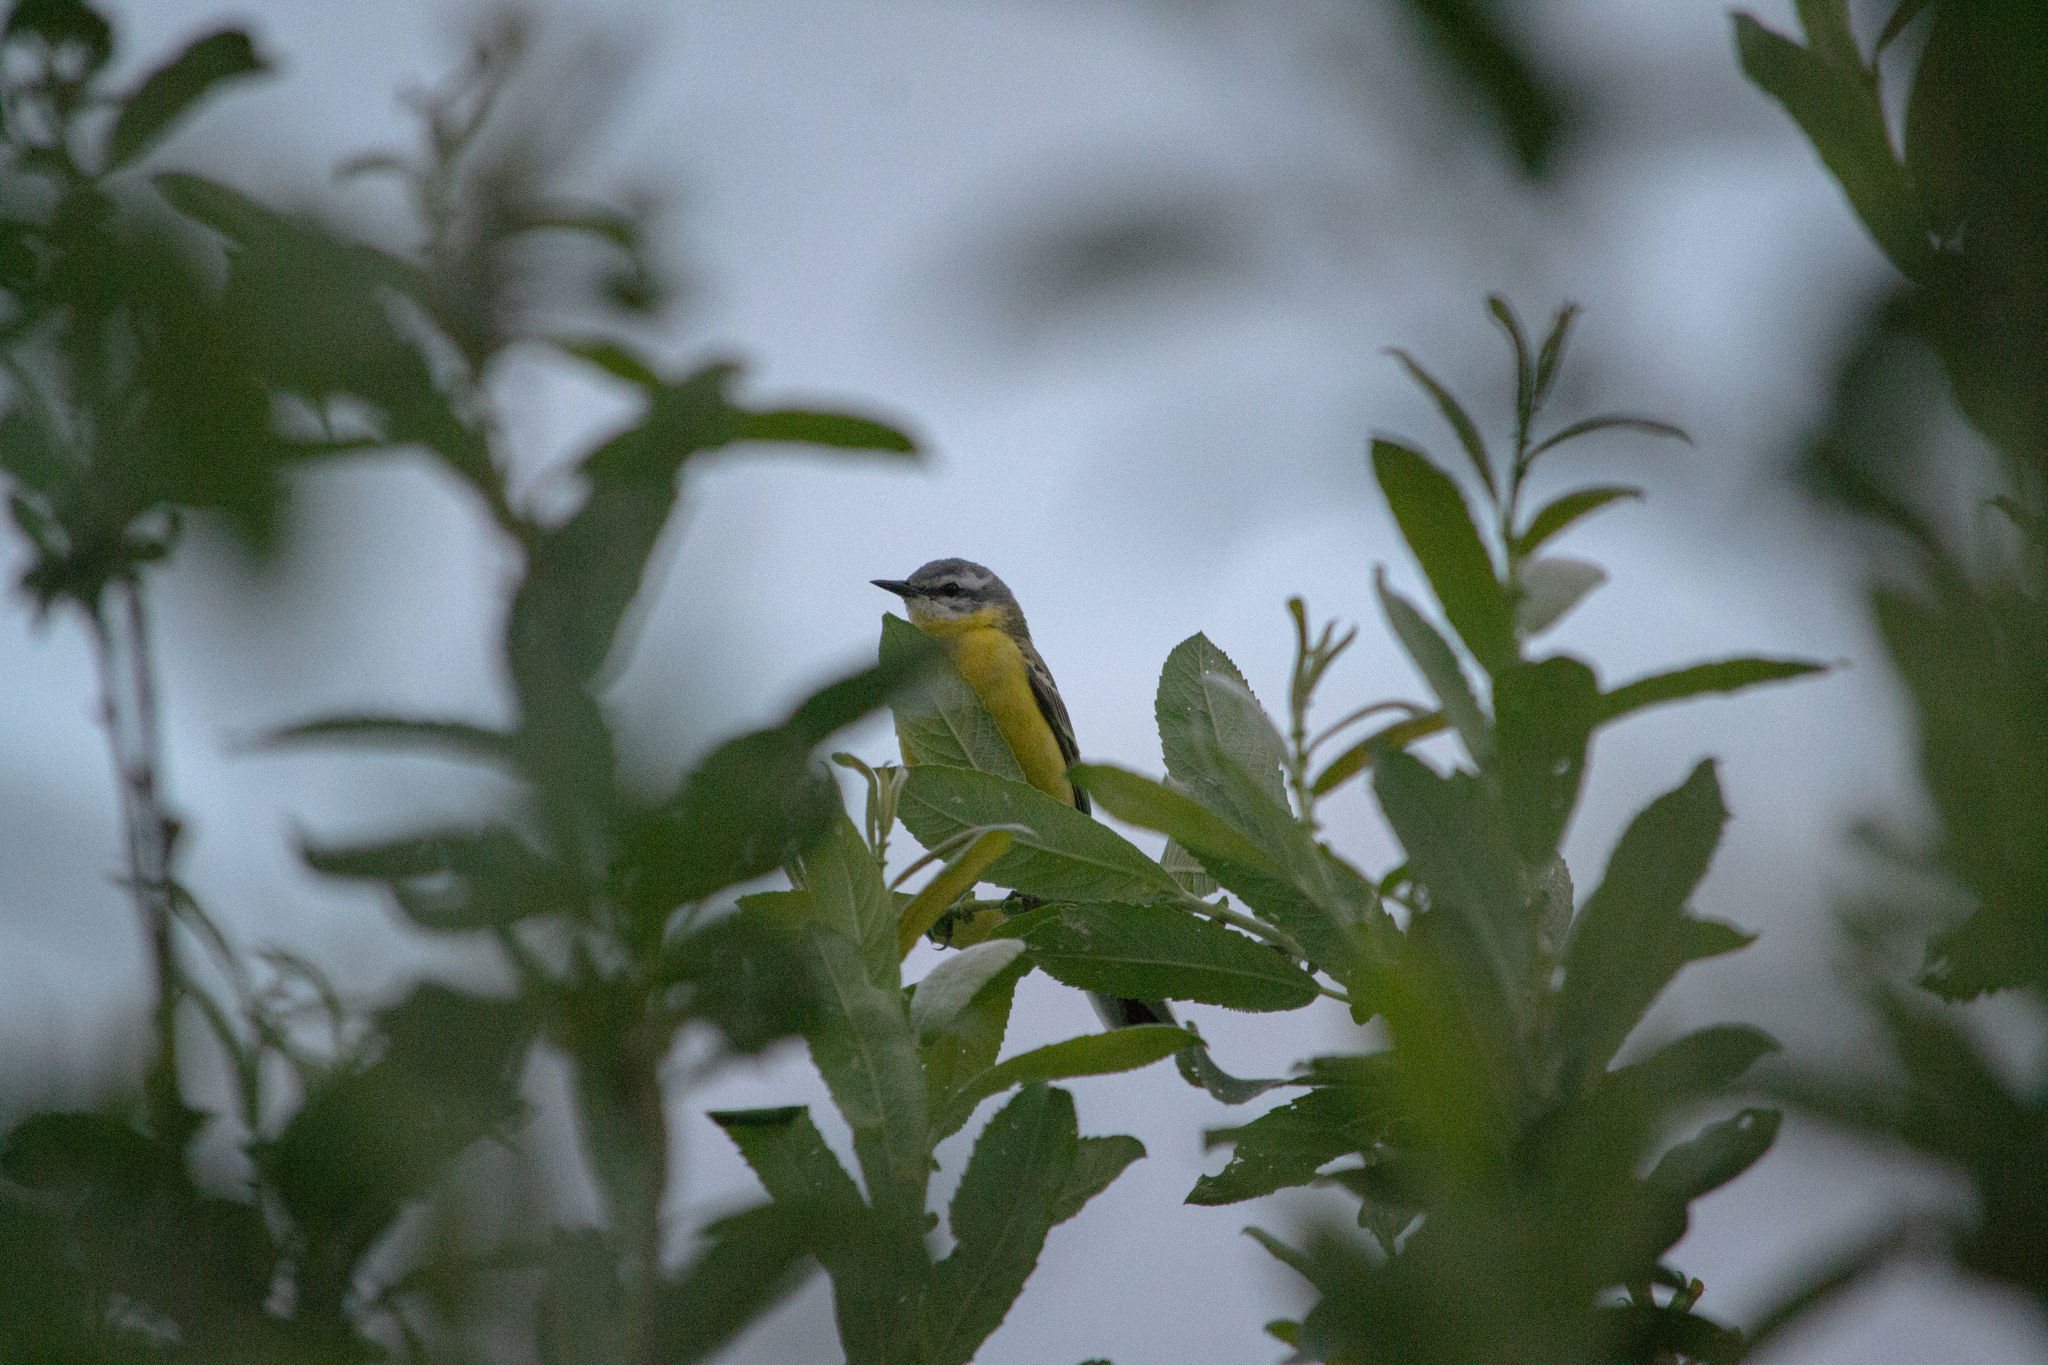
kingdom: Animalia
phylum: Chordata
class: Aves
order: Passeriformes
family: Motacillidae
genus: Motacilla
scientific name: Motacilla flava
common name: Western yellow wagtail
